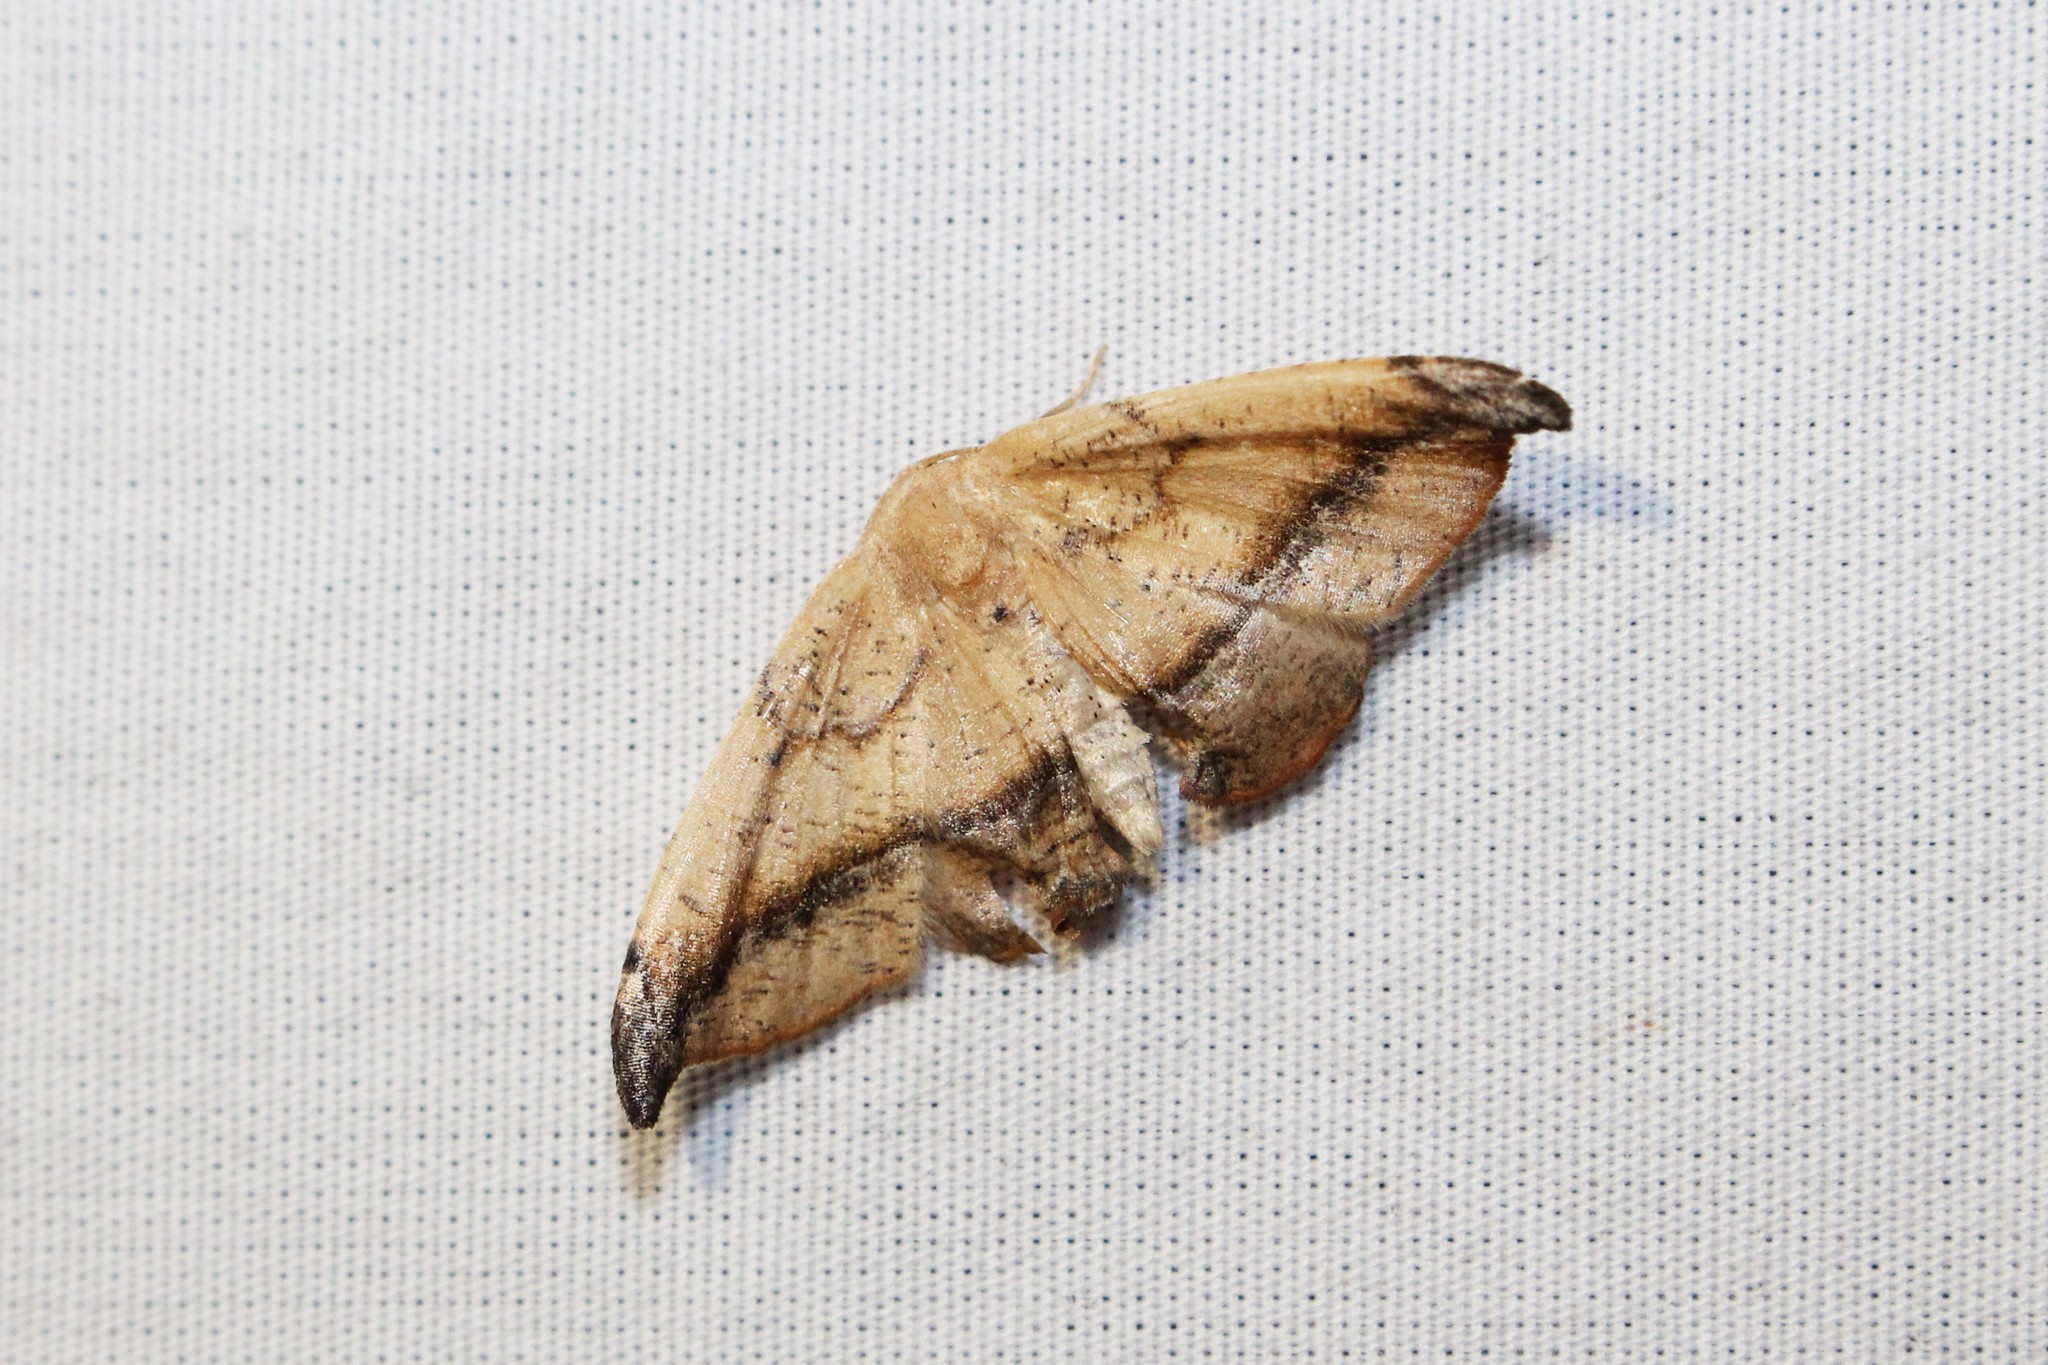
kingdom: Animalia
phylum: Arthropoda
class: Insecta
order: Lepidoptera
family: Geometridae
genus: Patalene
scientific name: Patalene olyzonaria
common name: Juniper geometer moth
